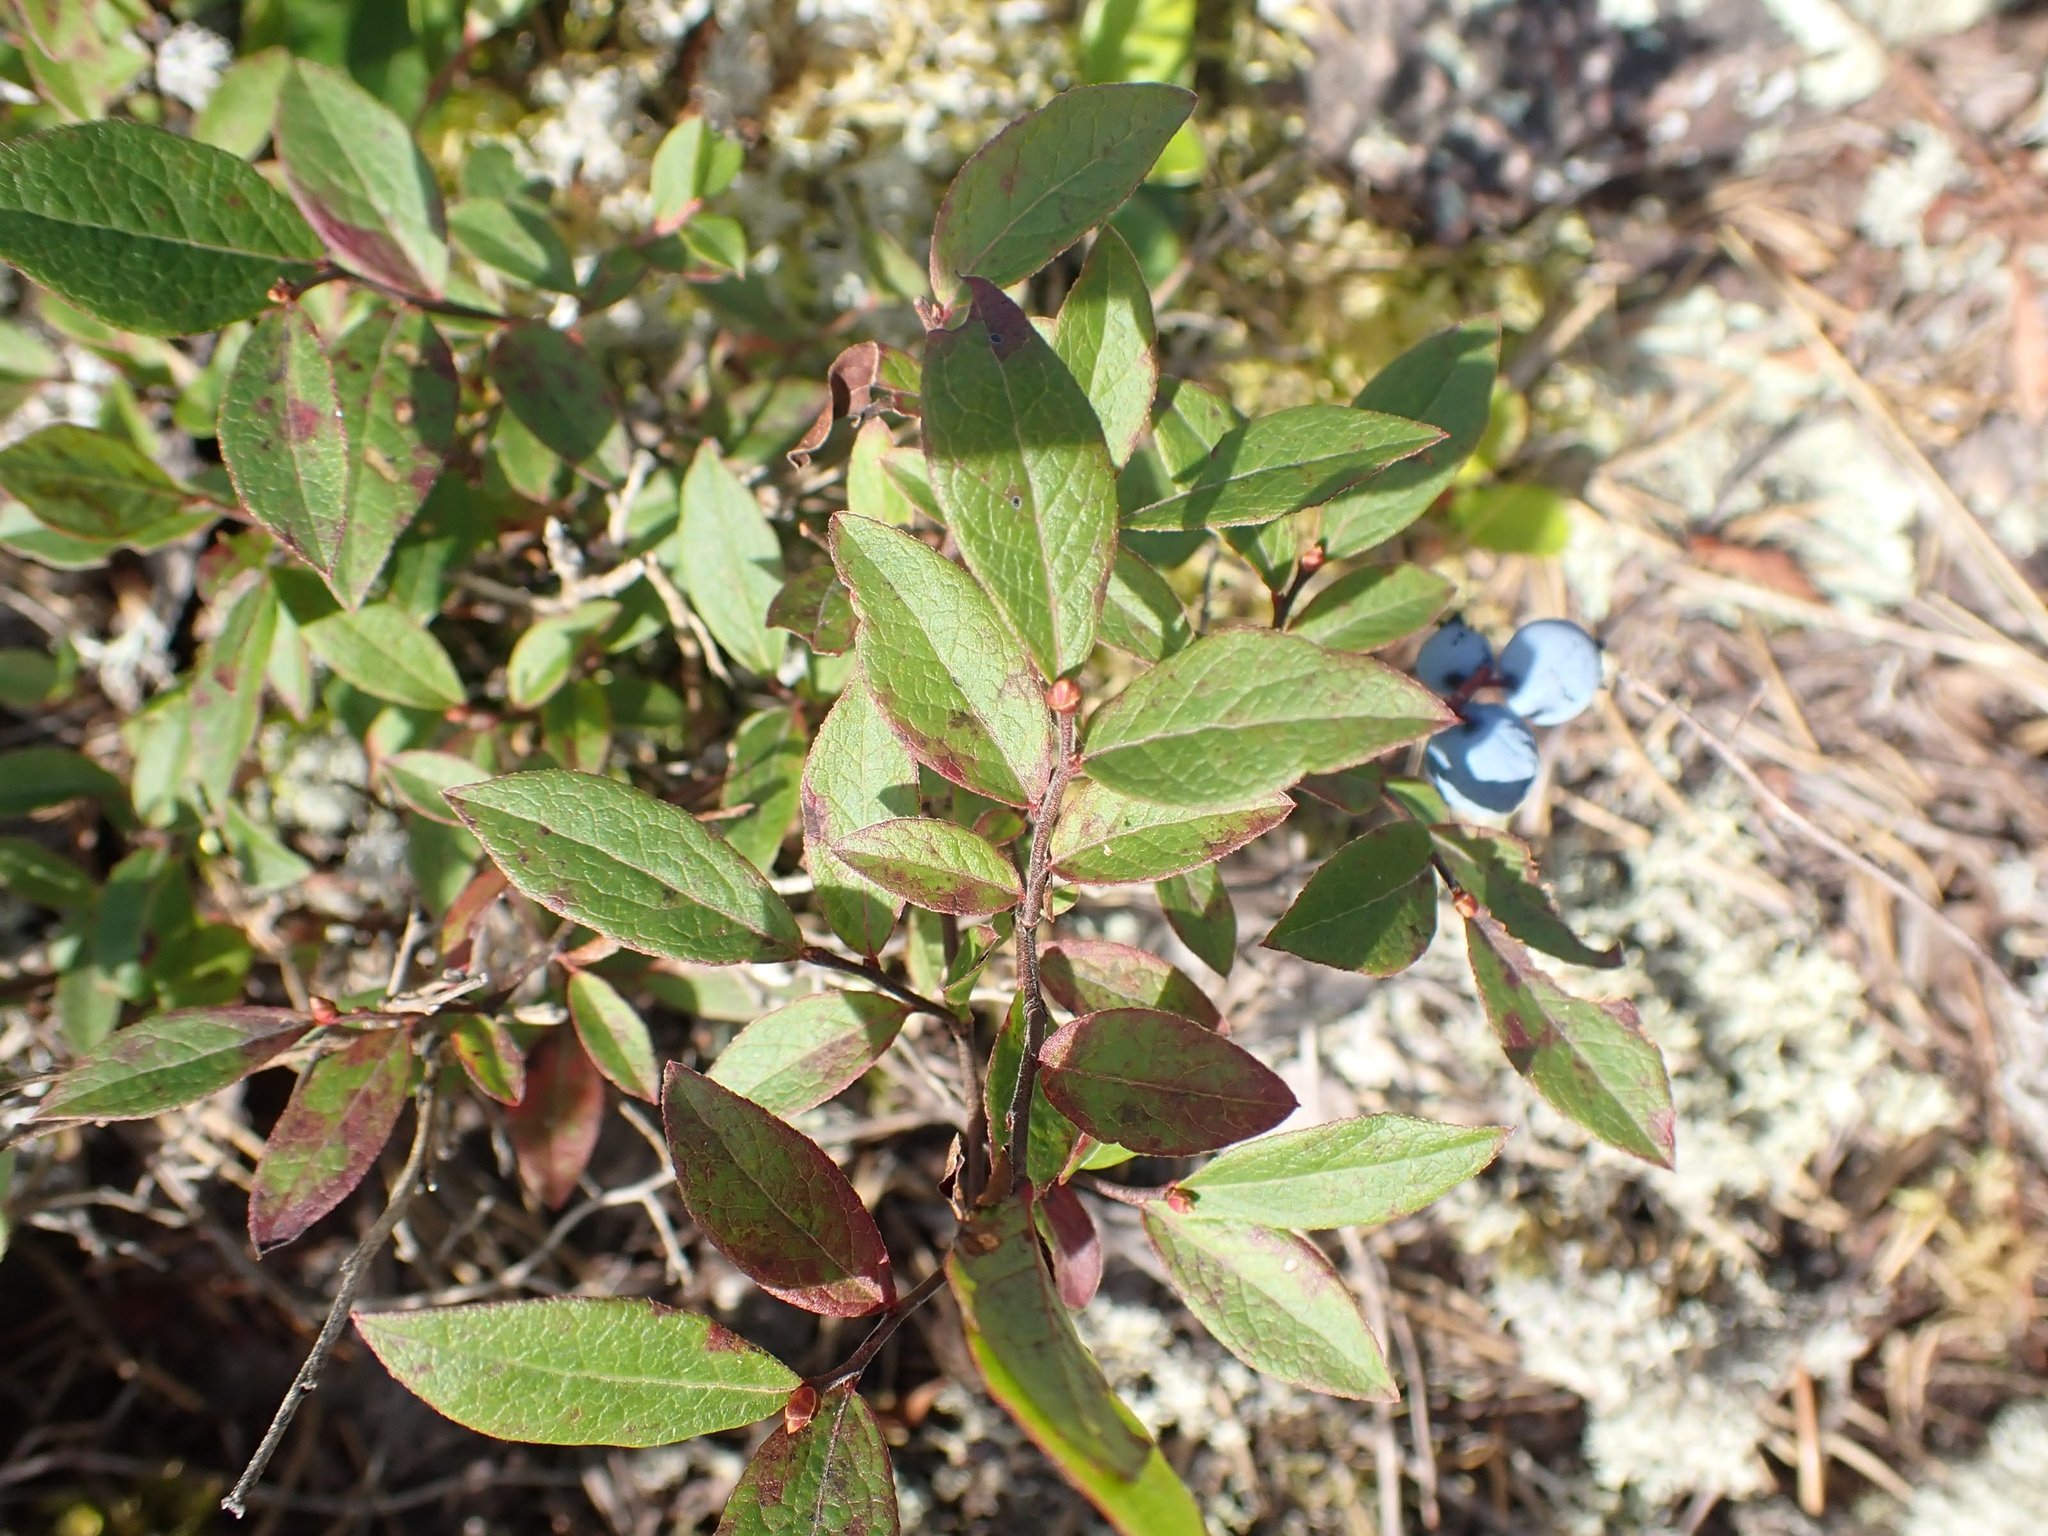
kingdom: Plantae
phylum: Tracheophyta
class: Magnoliopsida
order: Ericales
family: Ericaceae
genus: Vaccinium
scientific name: Vaccinium angustifolium
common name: Early lowbush blueberry
